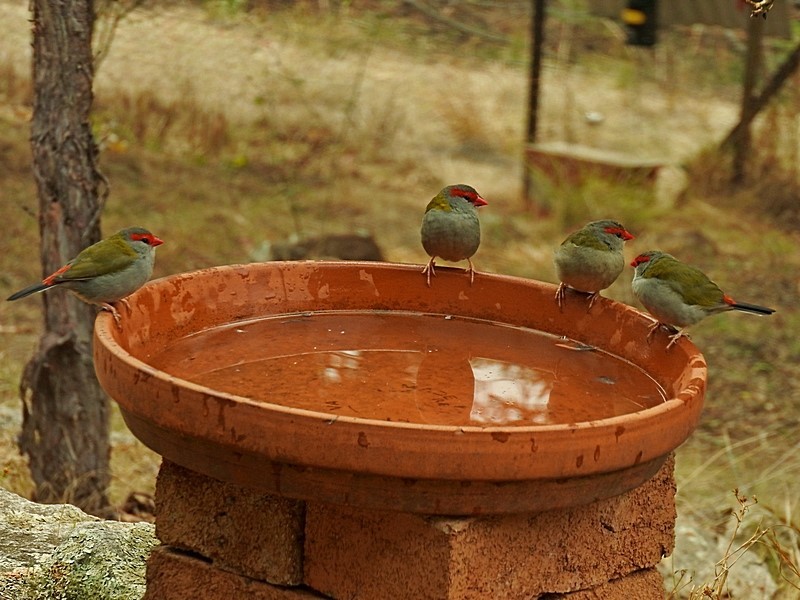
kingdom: Animalia
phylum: Chordata
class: Aves
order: Passeriformes
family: Estrildidae
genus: Neochmia
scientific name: Neochmia temporalis
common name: Red-browed finch
